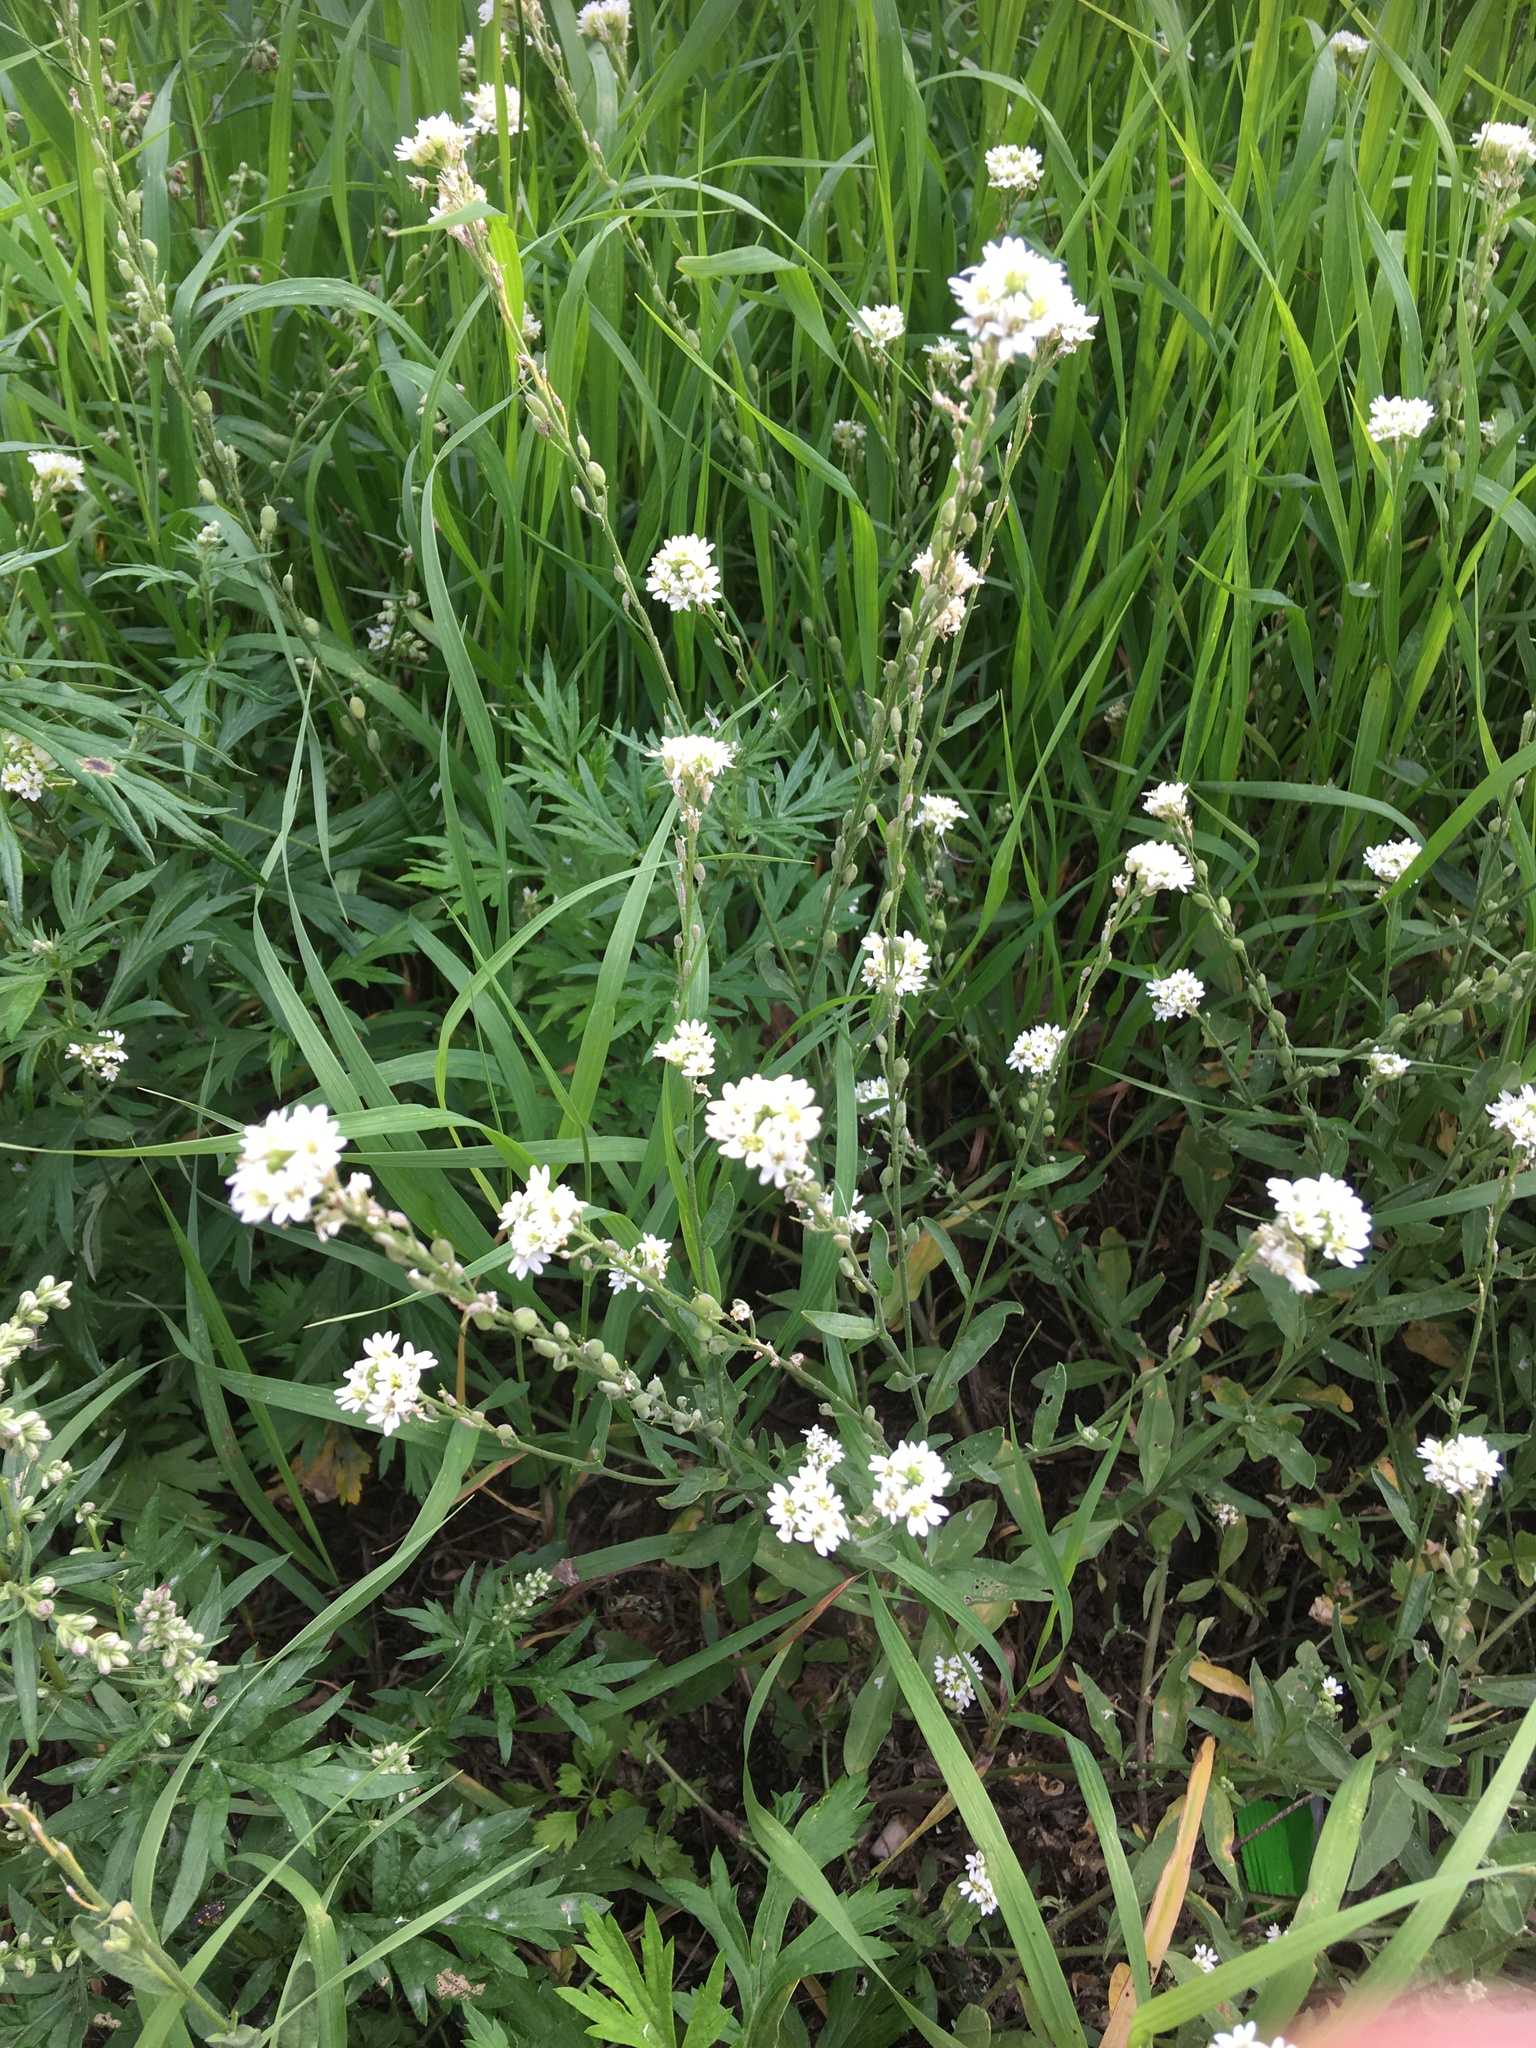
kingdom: Plantae
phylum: Tracheophyta
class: Magnoliopsida
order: Brassicales
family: Brassicaceae
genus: Berteroa
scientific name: Berteroa incana
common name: Hoary alison
